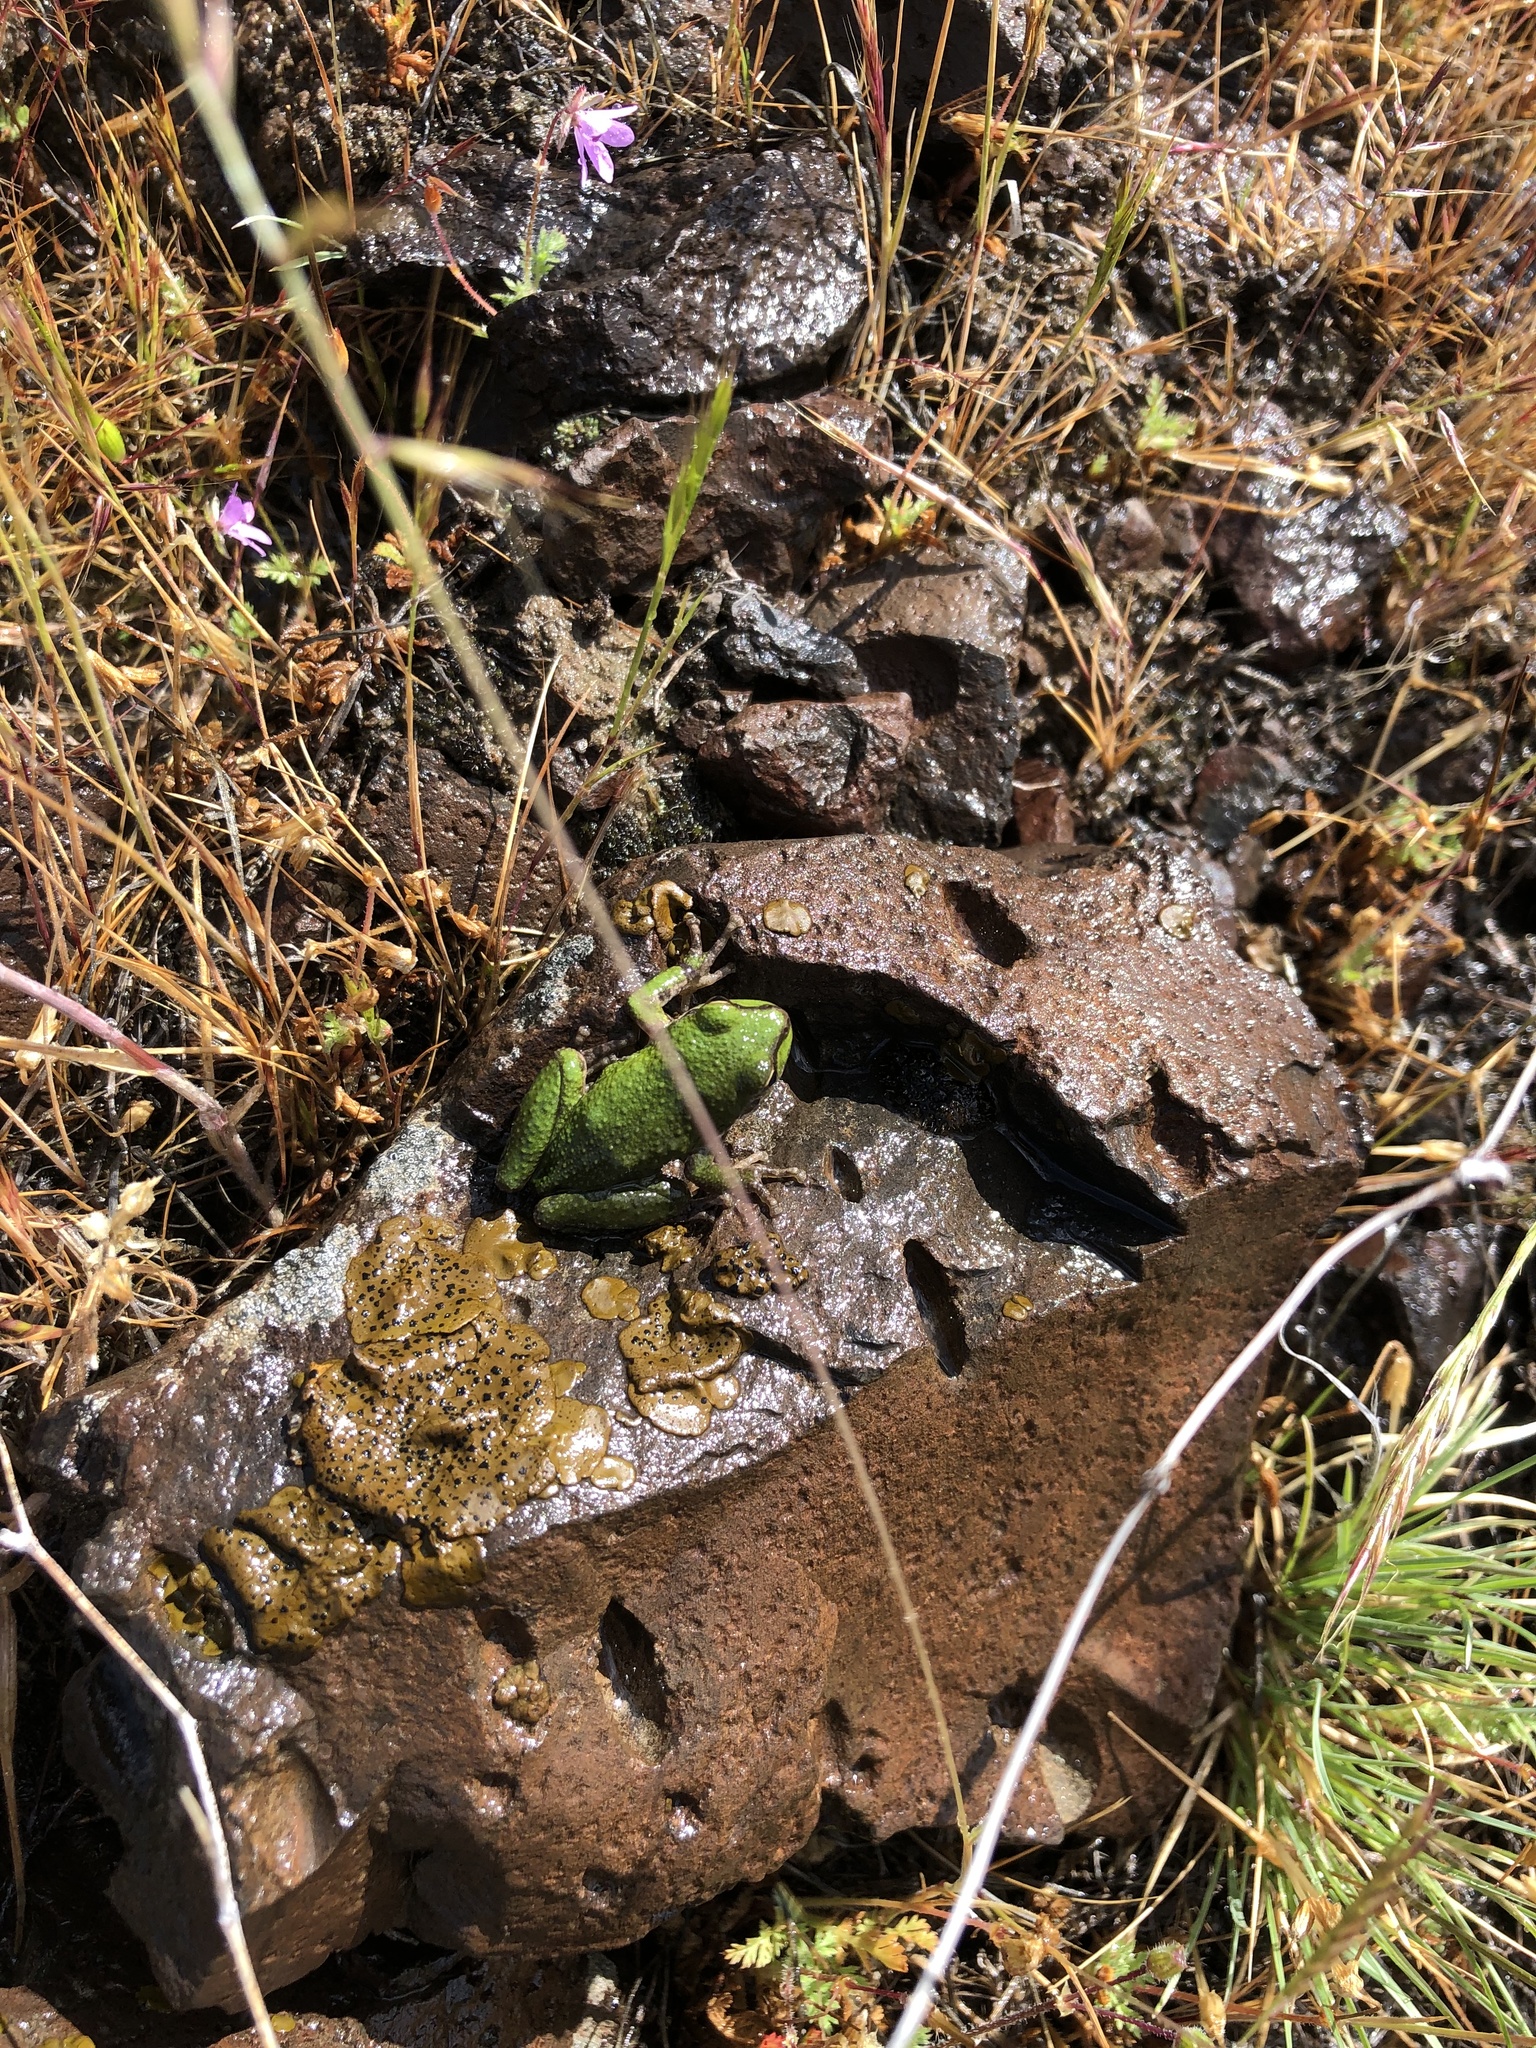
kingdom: Animalia
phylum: Chordata
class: Amphibia
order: Anura
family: Hylidae
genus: Pseudacris
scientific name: Pseudacris regilla
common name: Pacific chorus frog
